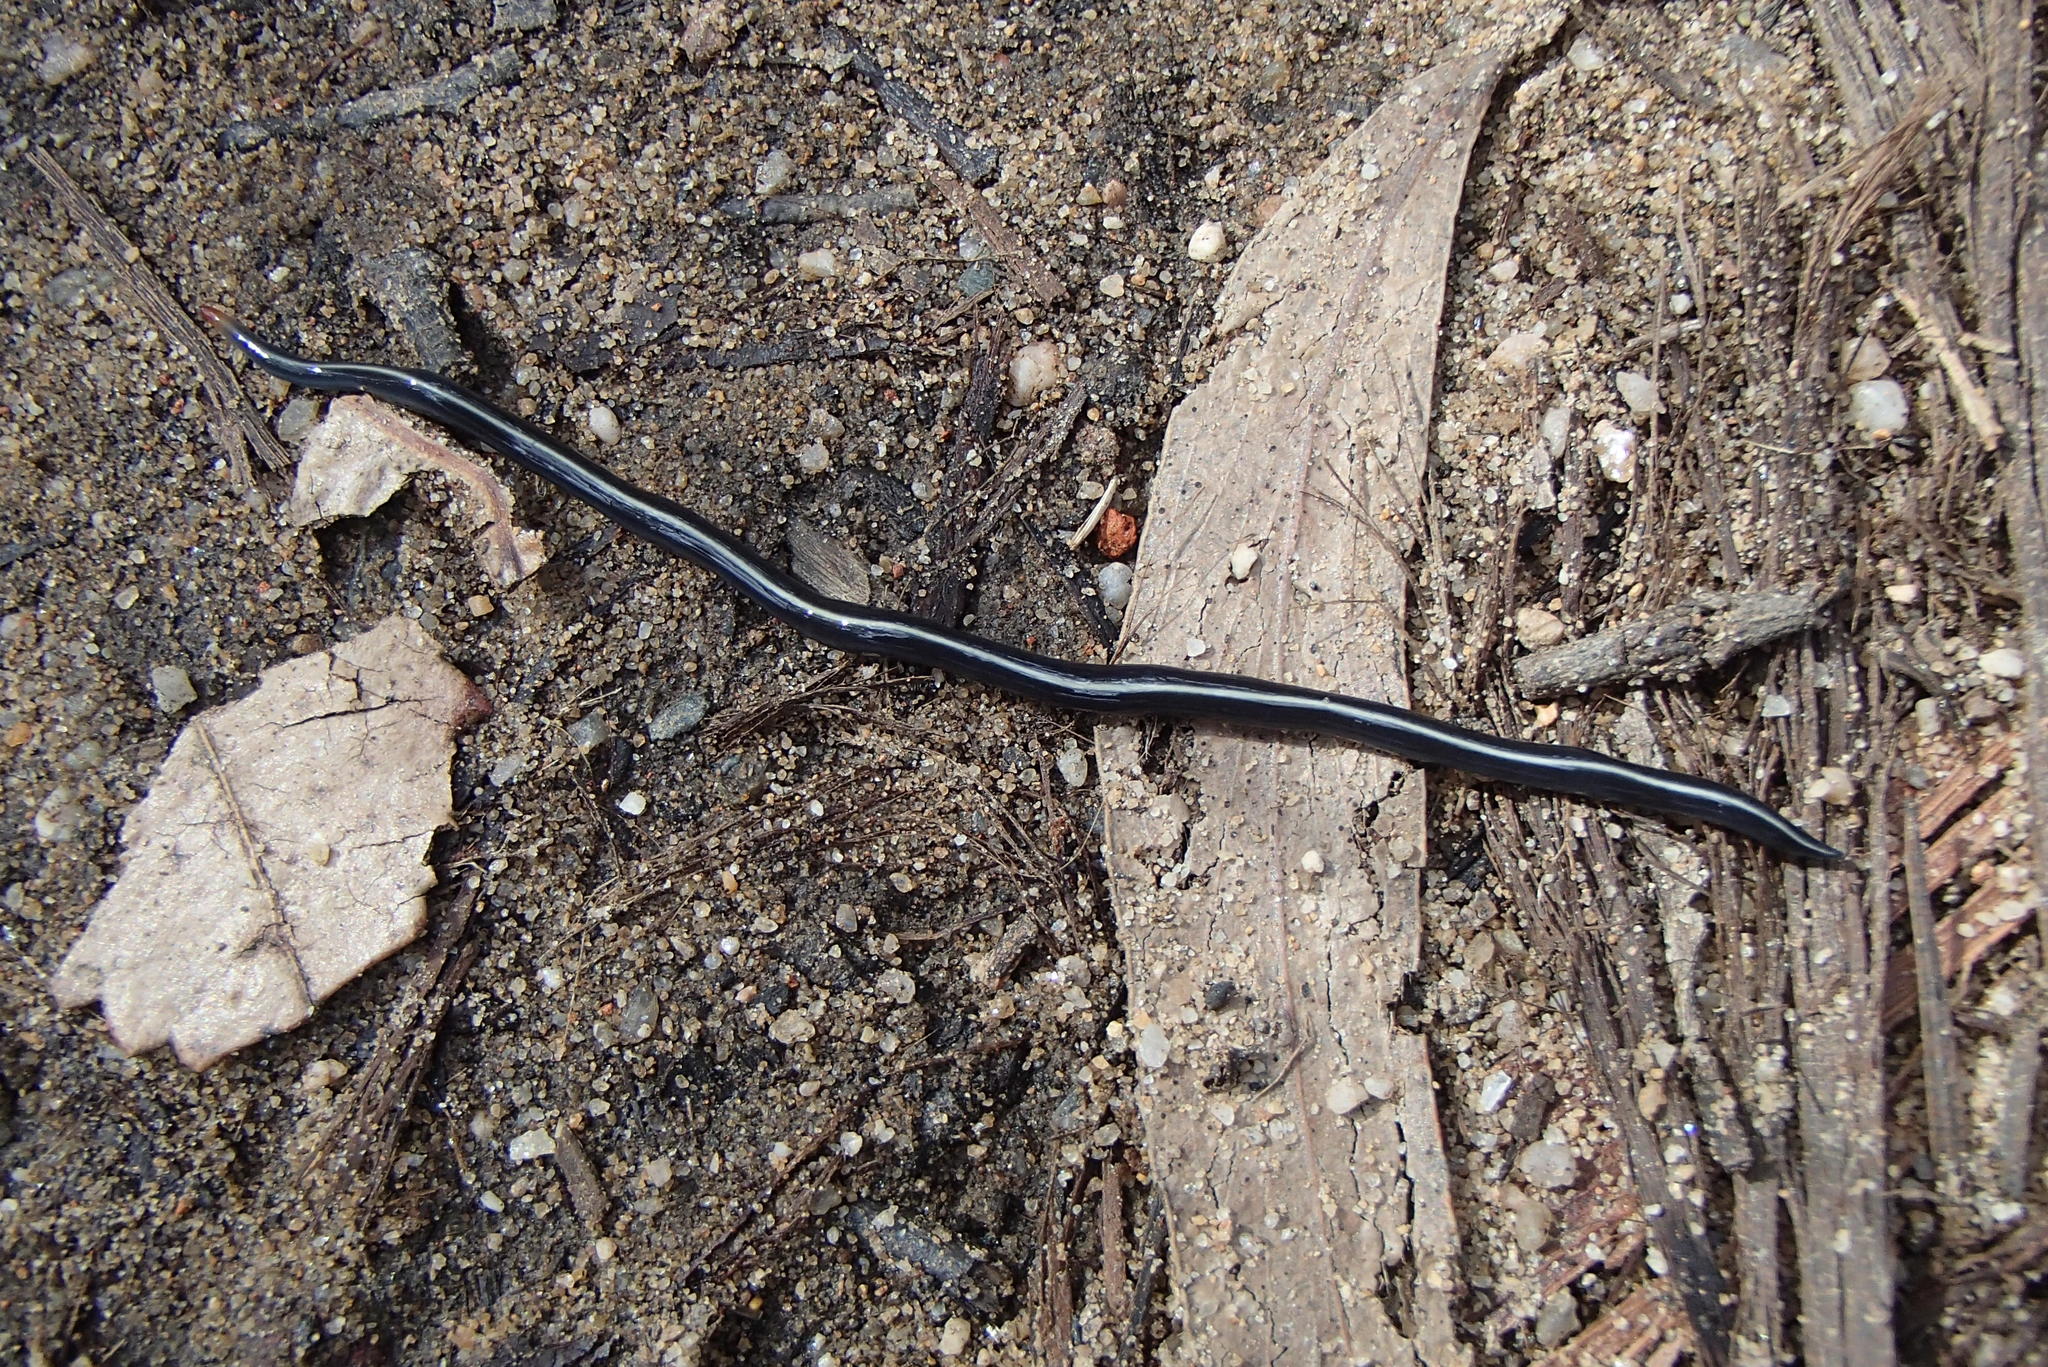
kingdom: Animalia
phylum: Platyhelminthes
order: Tricladida
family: Geoplanidae
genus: Caenoplana
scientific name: Caenoplana coerulea
